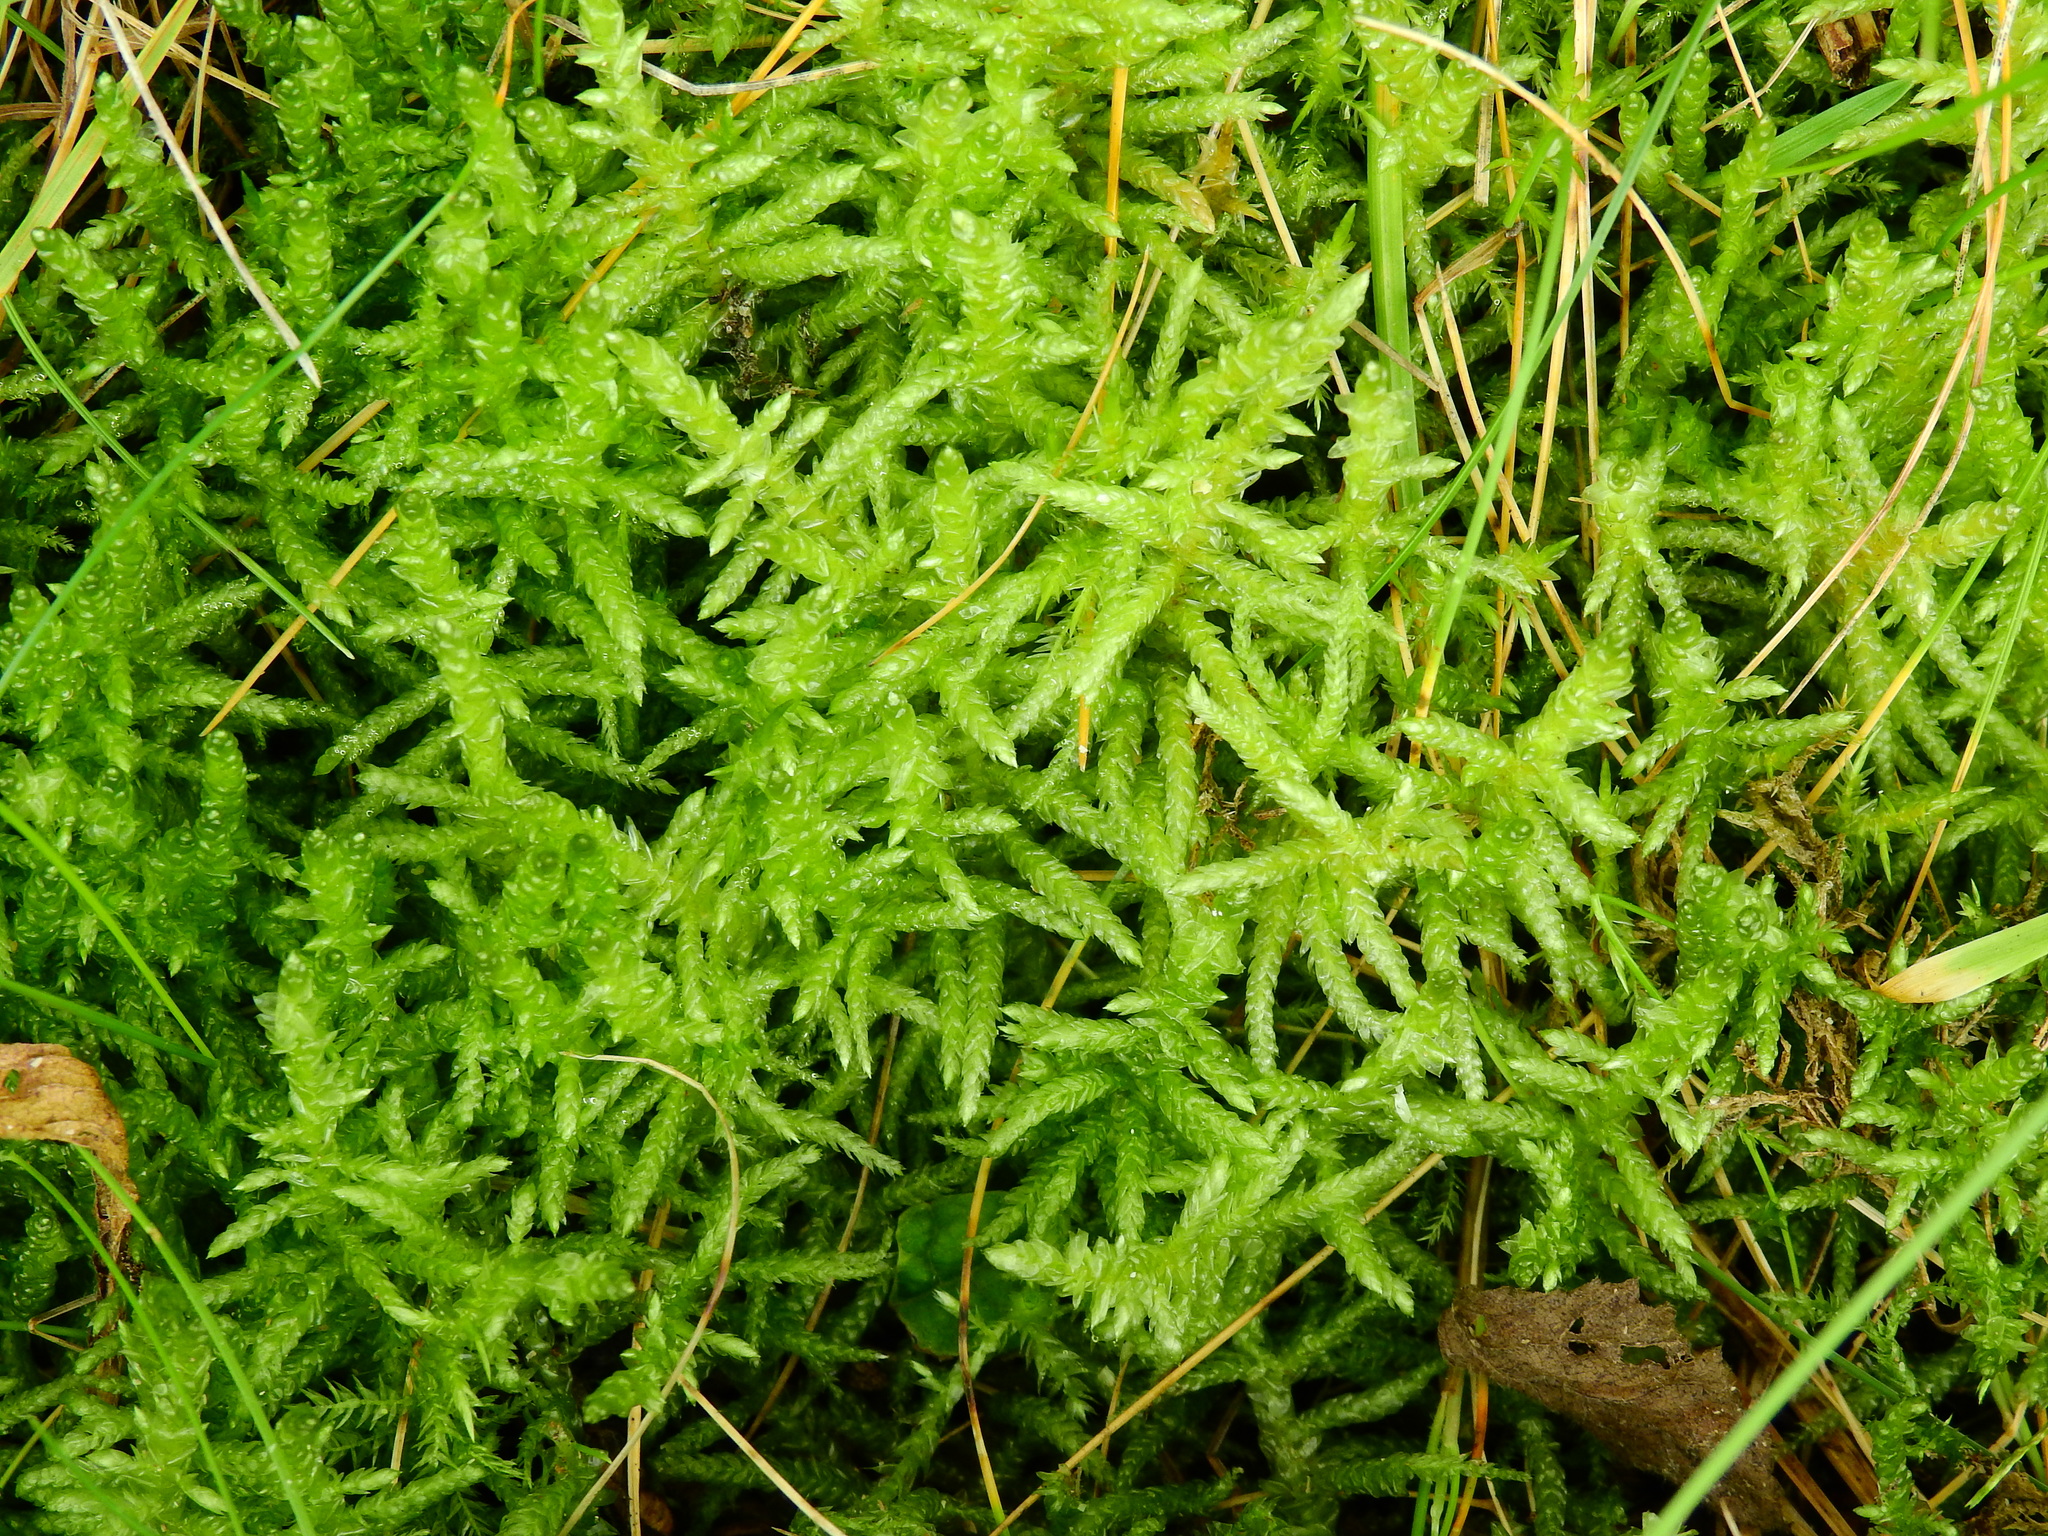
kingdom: Plantae
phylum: Bryophyta
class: Bryopsida
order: Hypnales
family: Brachytheciaceae
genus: Pseudoscleropodium
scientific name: Pseudoscleropodium purum
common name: Neat feather-moss
